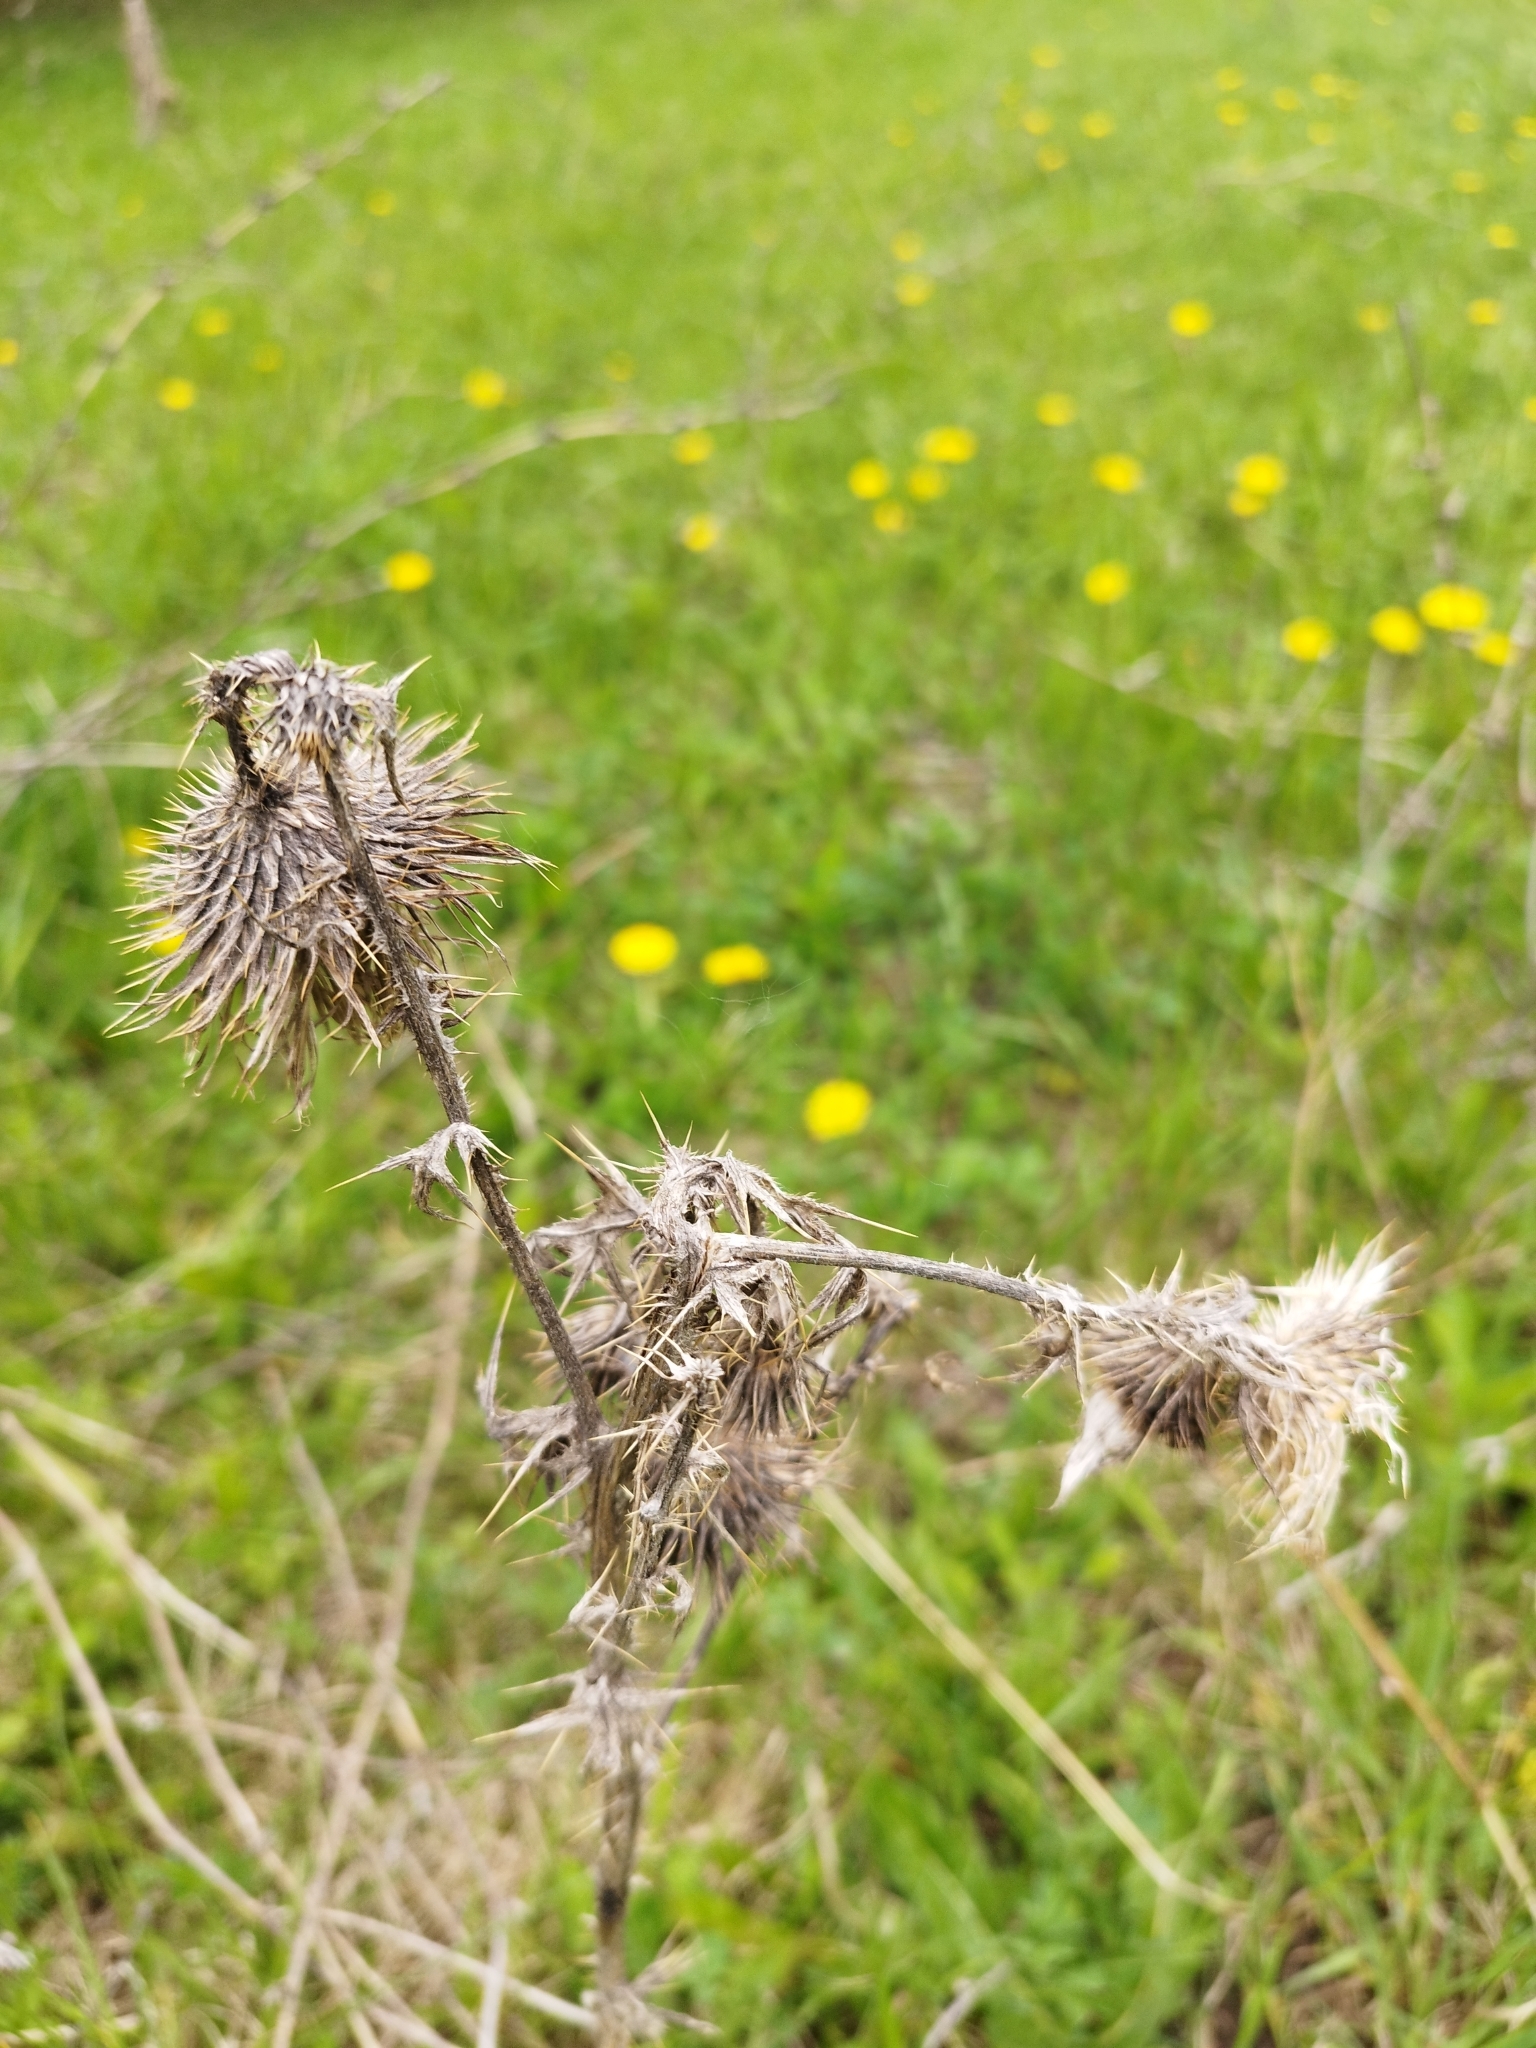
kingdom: Plantae
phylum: Tracheophyta
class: Magnoliopsida
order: Asterales
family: Asteraceae
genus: Cirsium
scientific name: Cirsium vulgare
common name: Bull thistle
